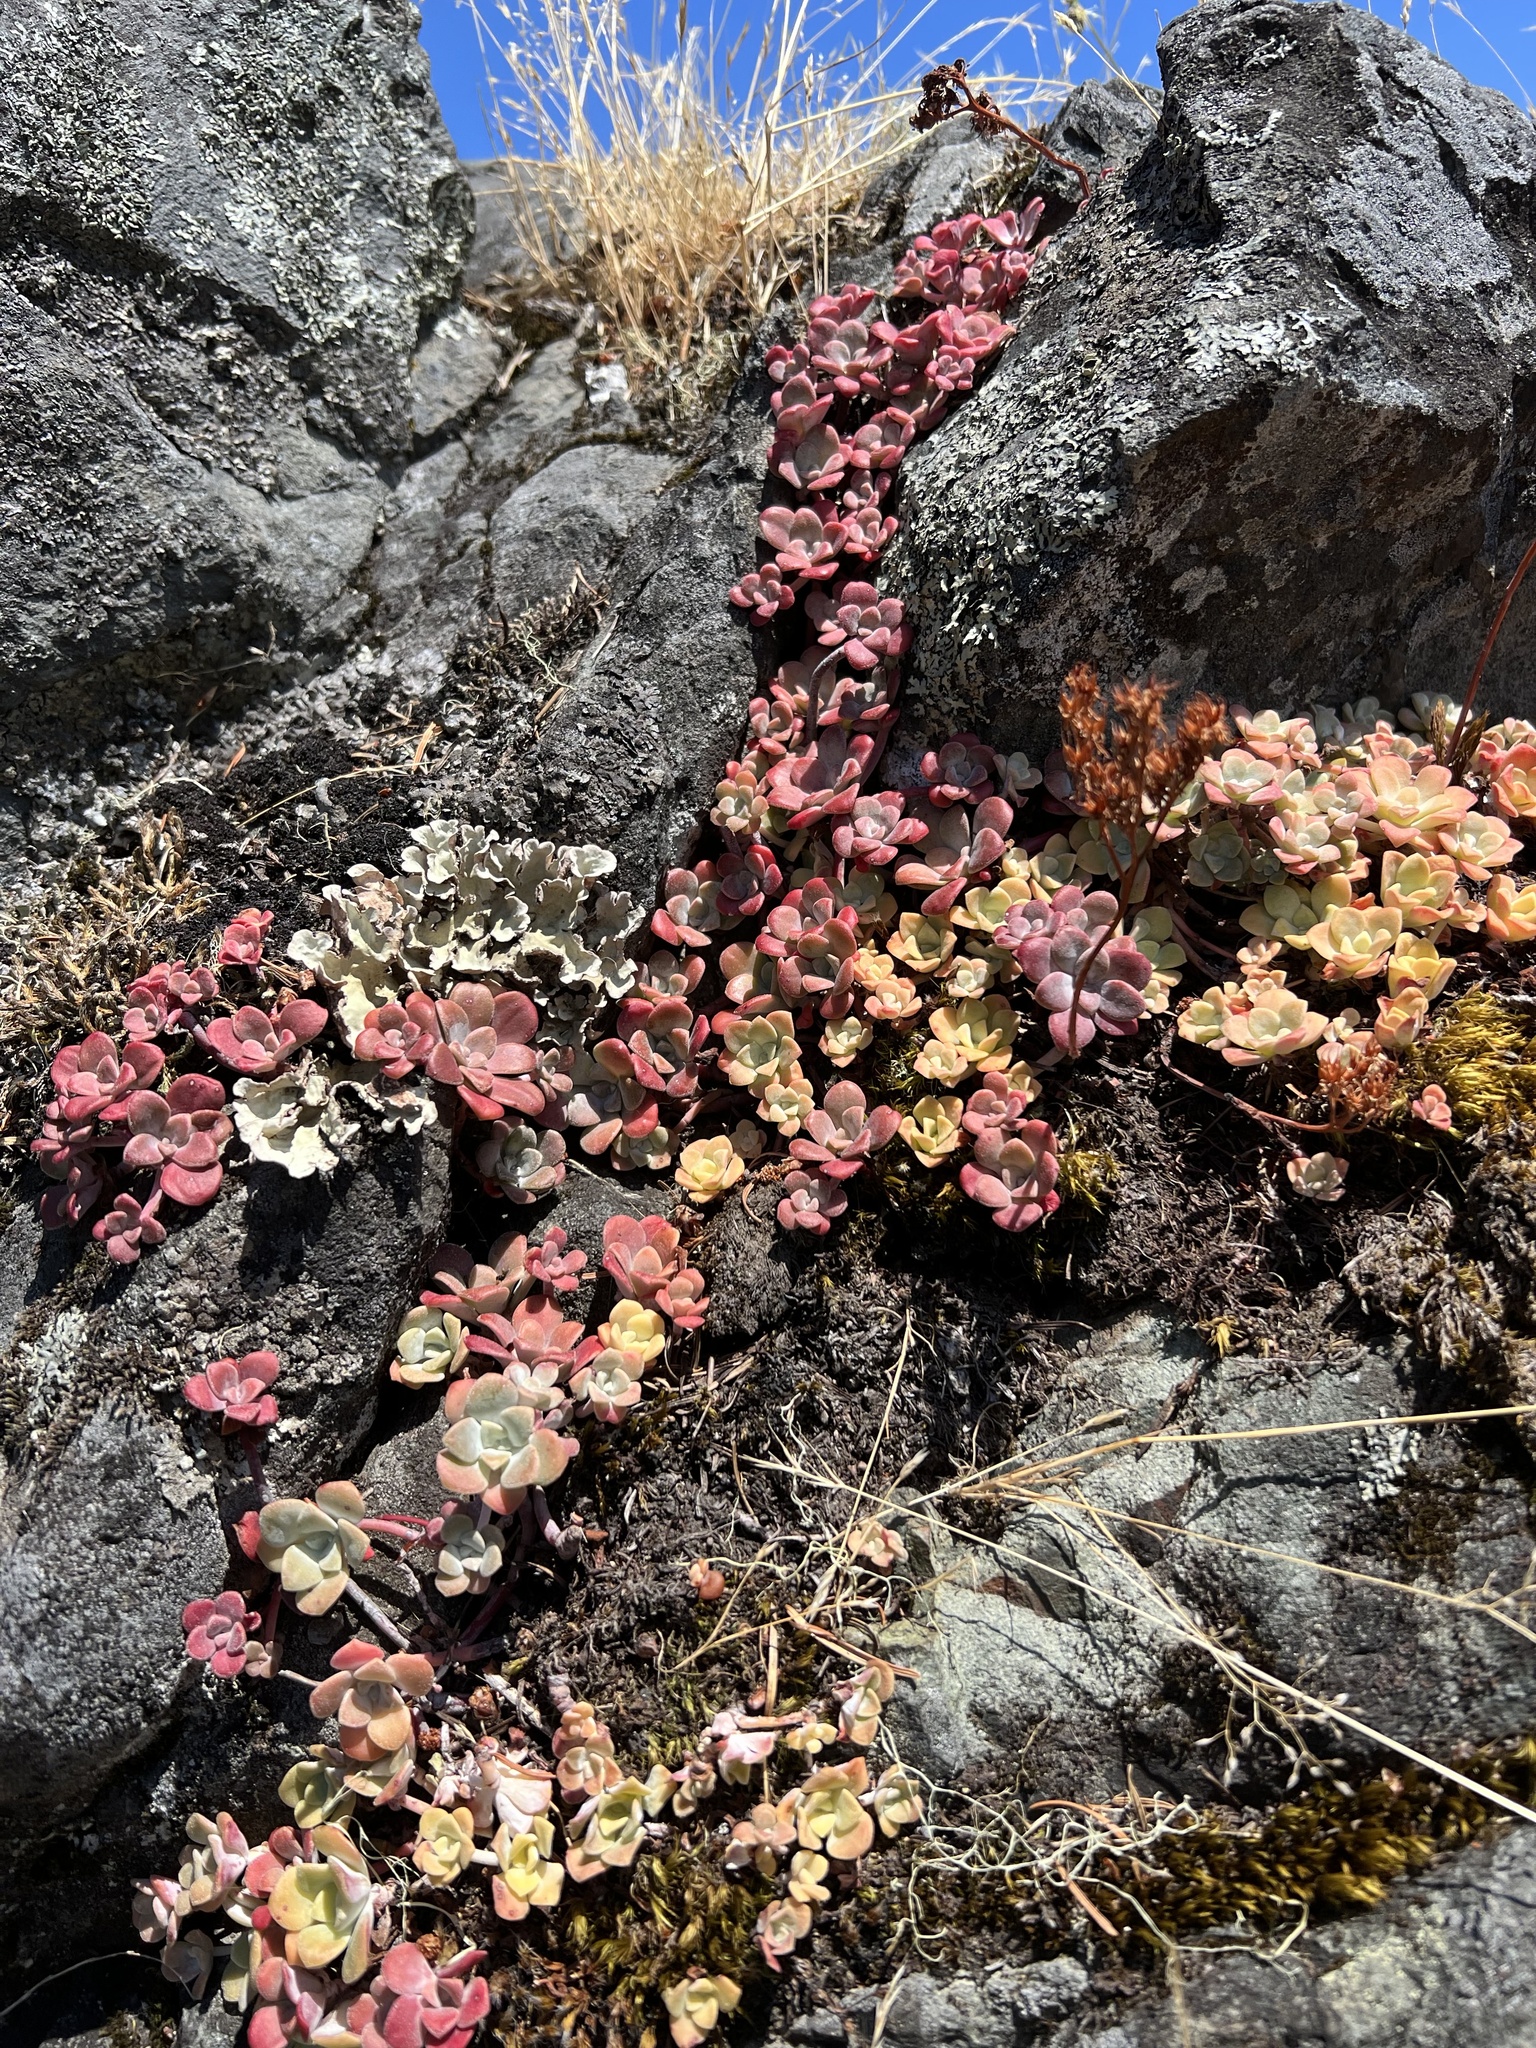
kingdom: Plantae
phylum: Tracheophyta
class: Magnoliopsida
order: Saxifragales
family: Crassulaceae
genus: Sedum
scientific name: Sedum spathulifolium
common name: Colorado stonecrop
